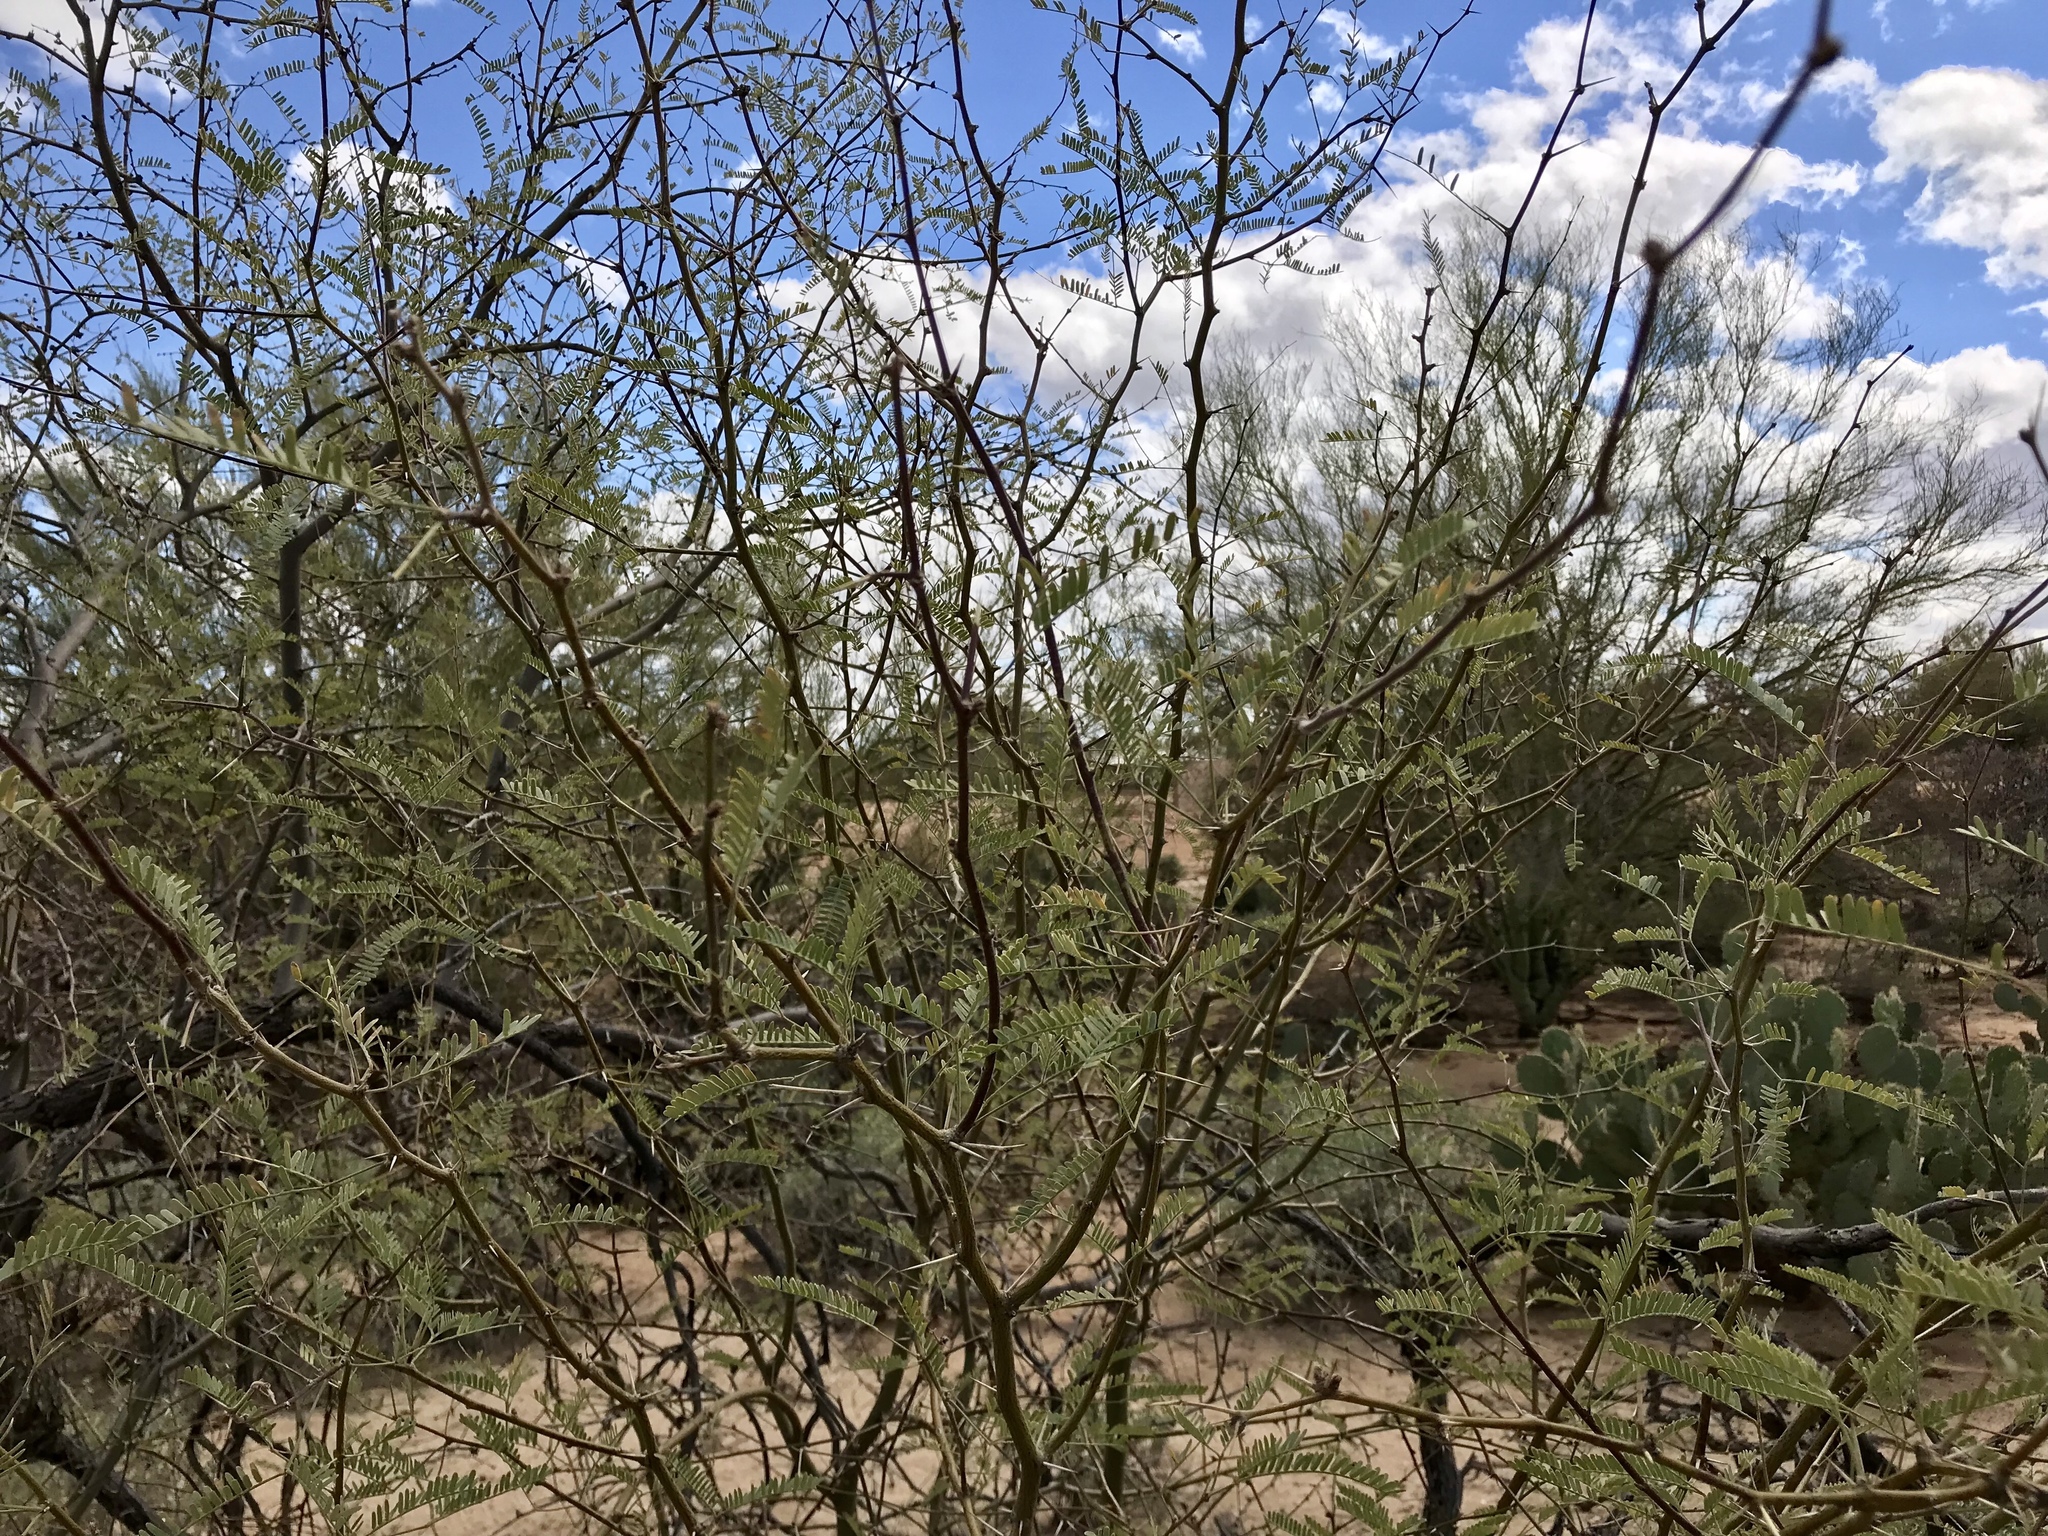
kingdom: Plantae
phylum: Tracheophyta
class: Magnoliopsida
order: Fabales
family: Fabaceae
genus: Vachellia
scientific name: Vachellia constricta
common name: Mescat acacia
